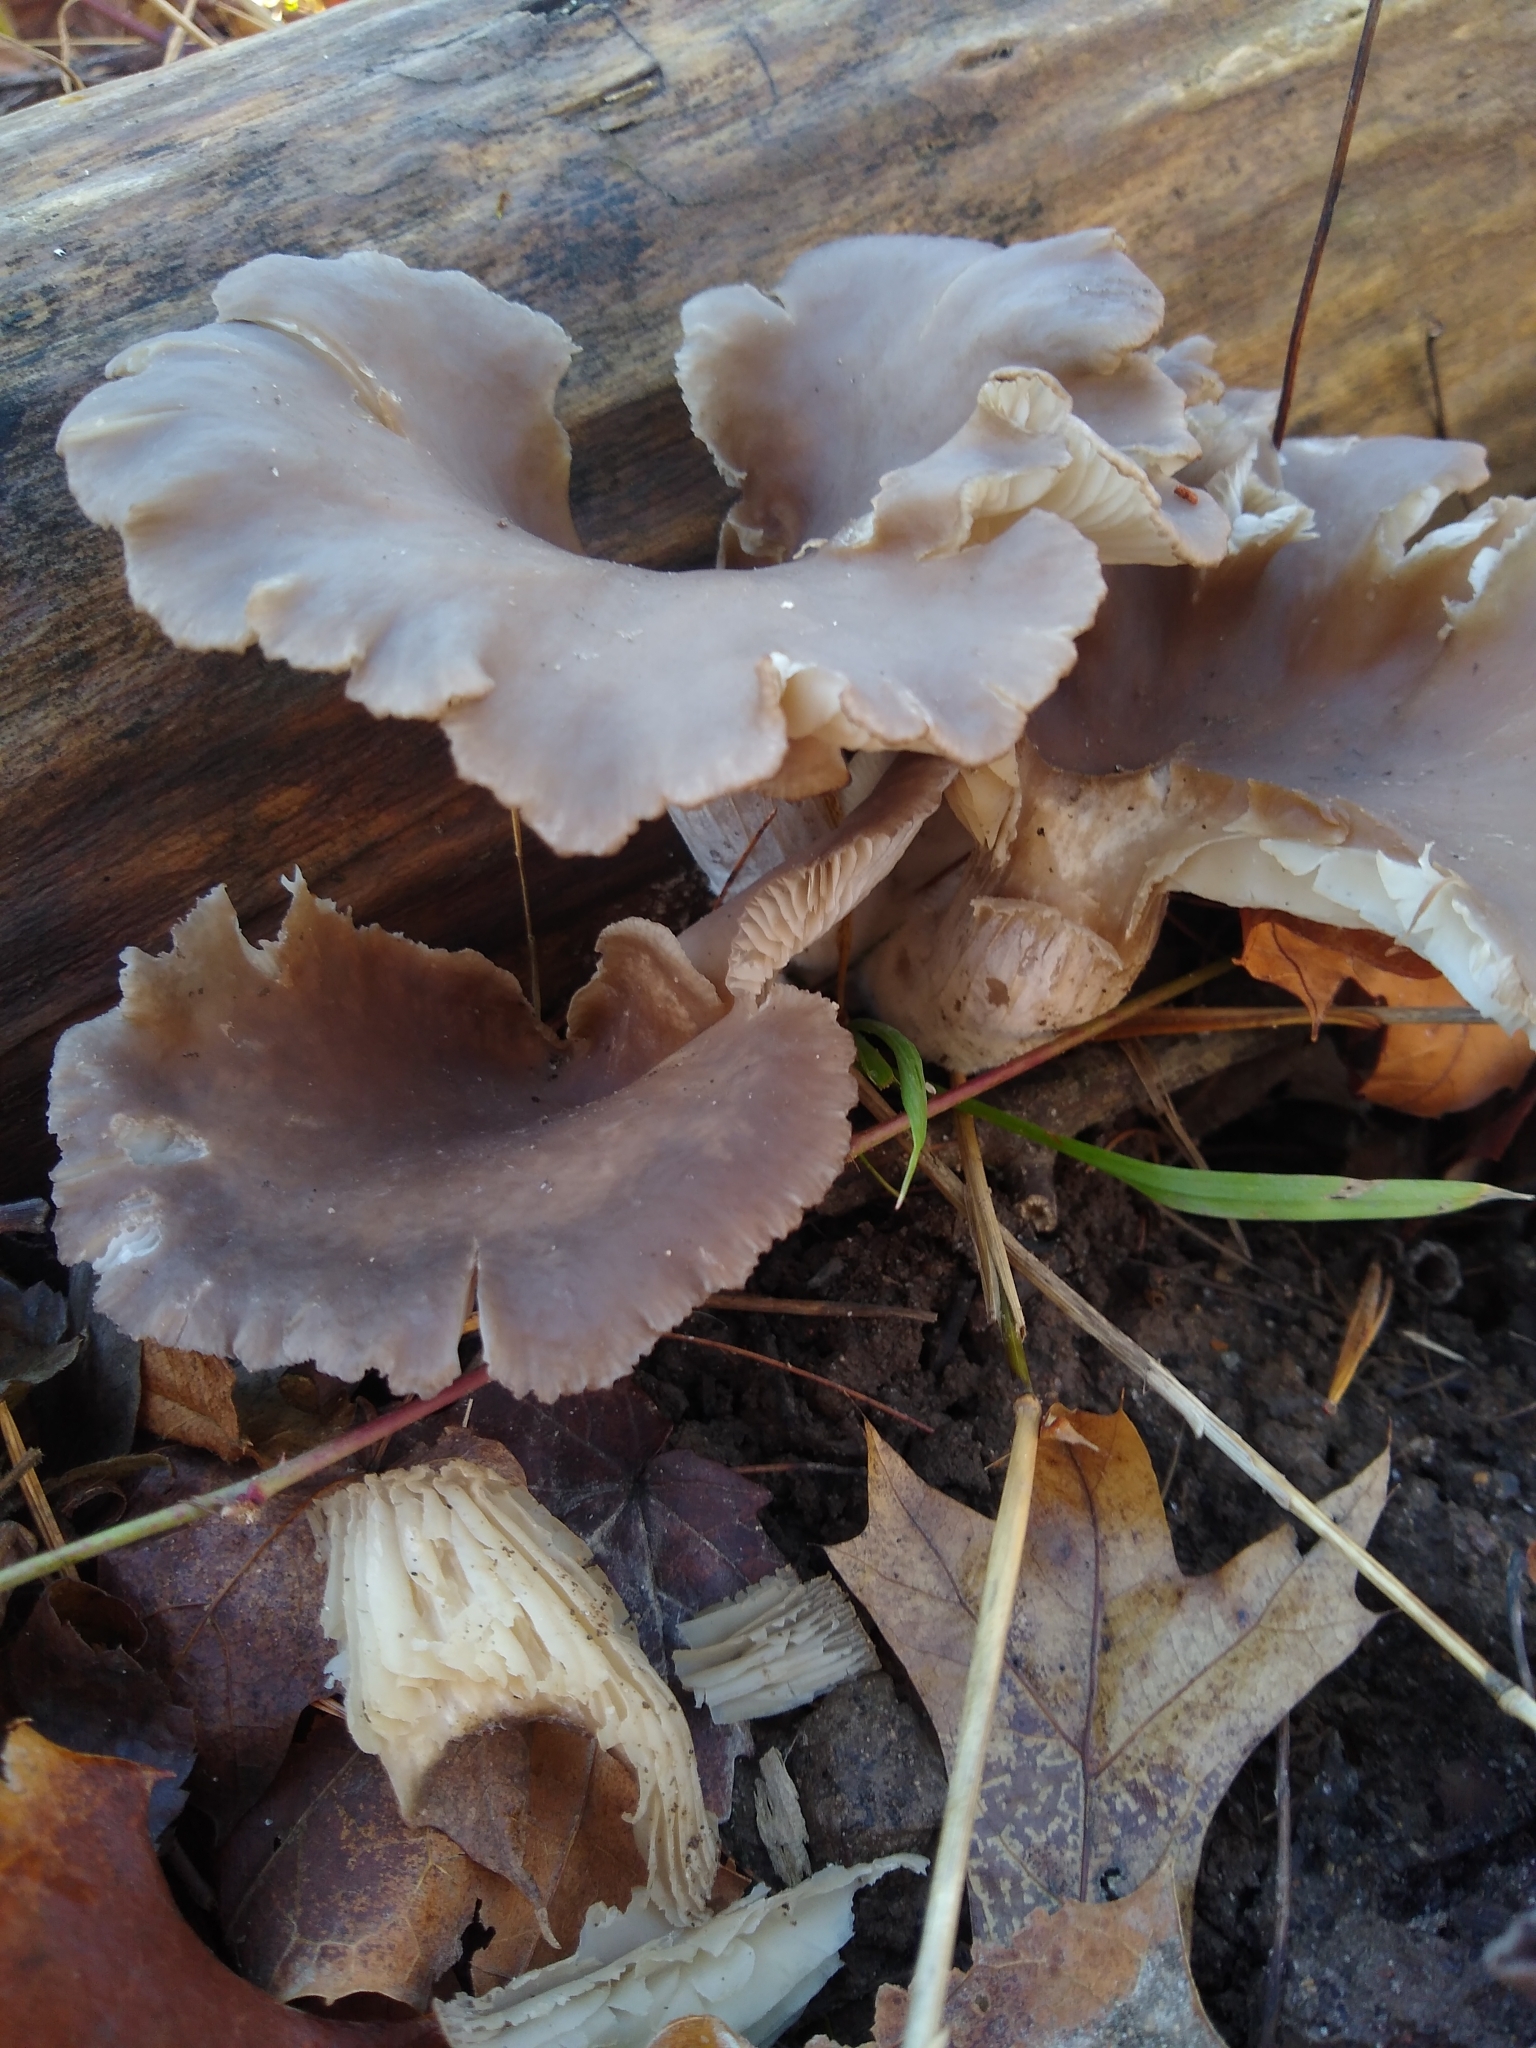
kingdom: Fungi
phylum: Basidiomycota
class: Agaricomycetes
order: Agaricales
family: Pleurotaceae
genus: Pleurotus
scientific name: Pleurotus ostreatus
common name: Oyster mushroom
